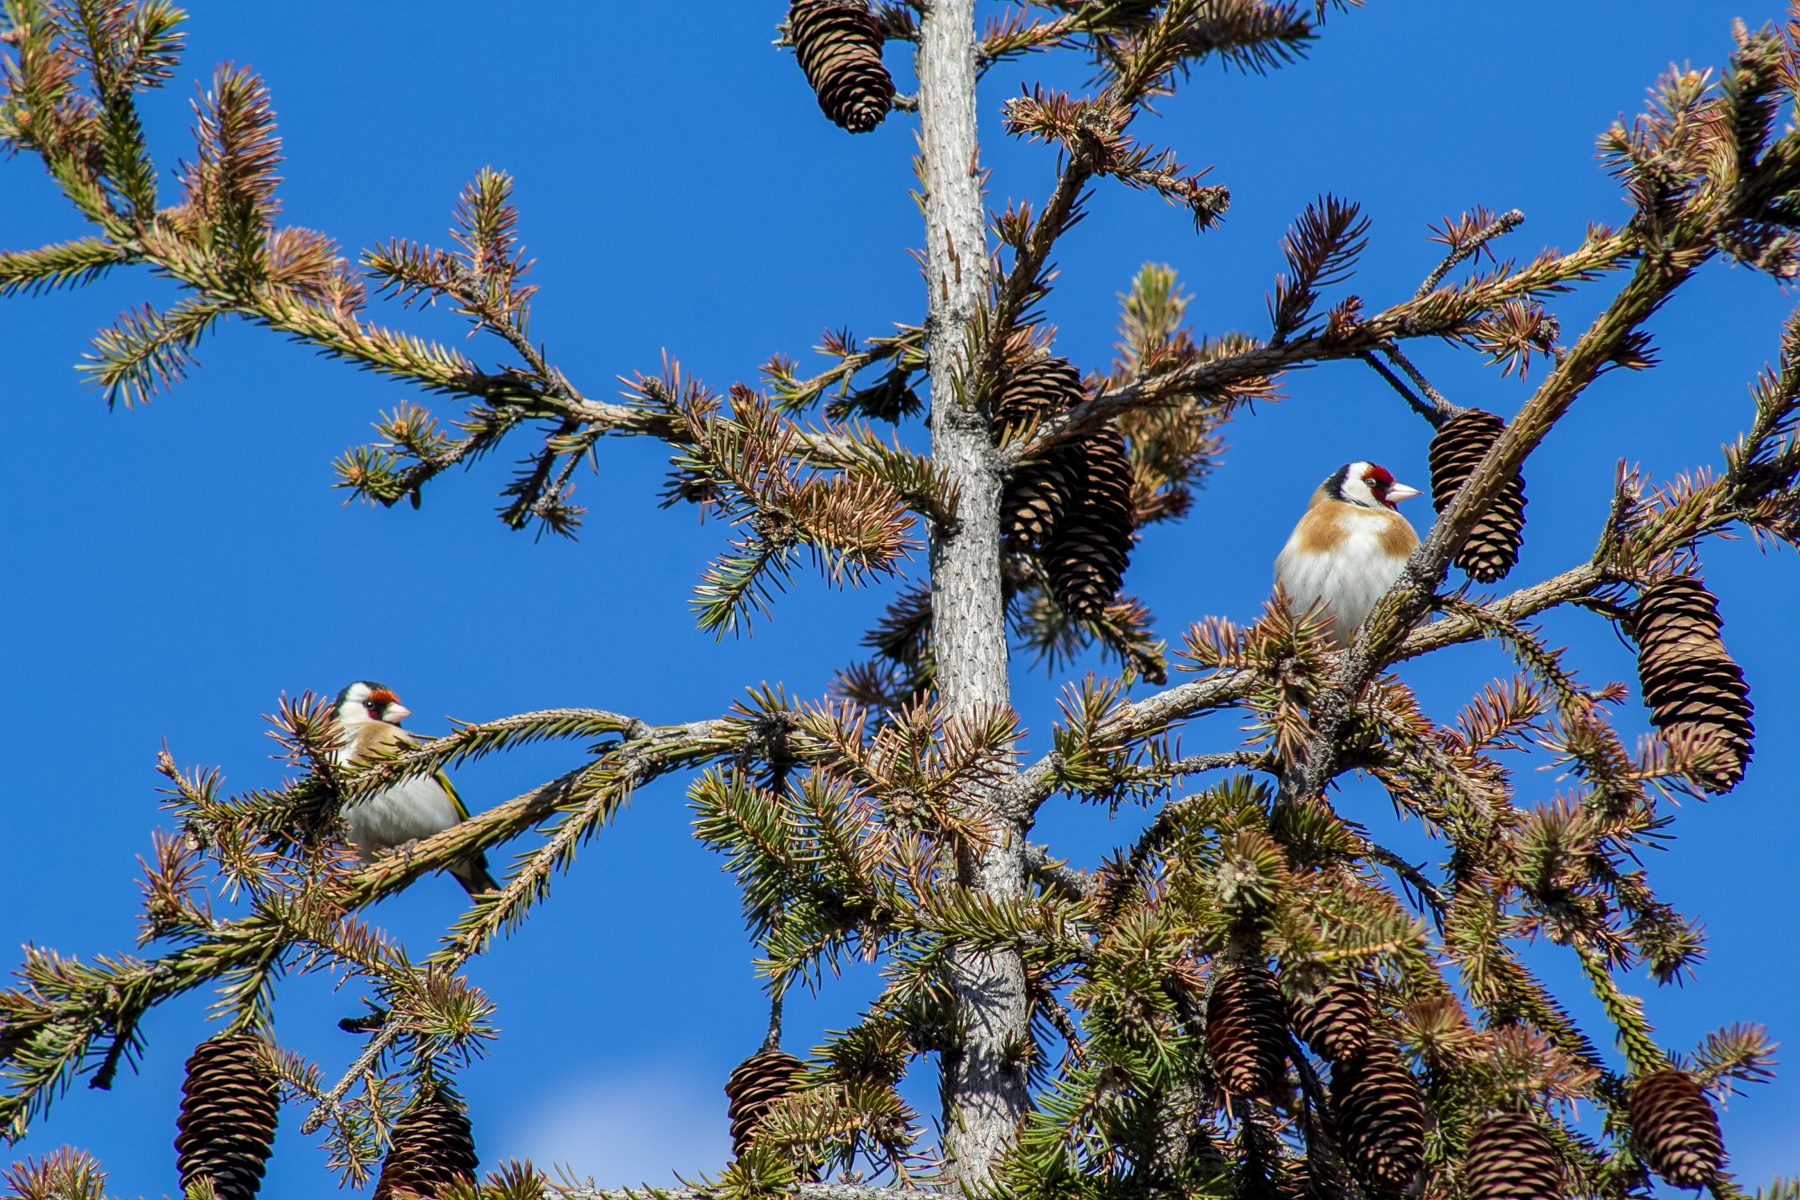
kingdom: Animalia
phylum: Chordata
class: Aves
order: Passeriformes
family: Fringillidae
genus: Carduelis
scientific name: Carduelis carduelis
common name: European goldfinch
